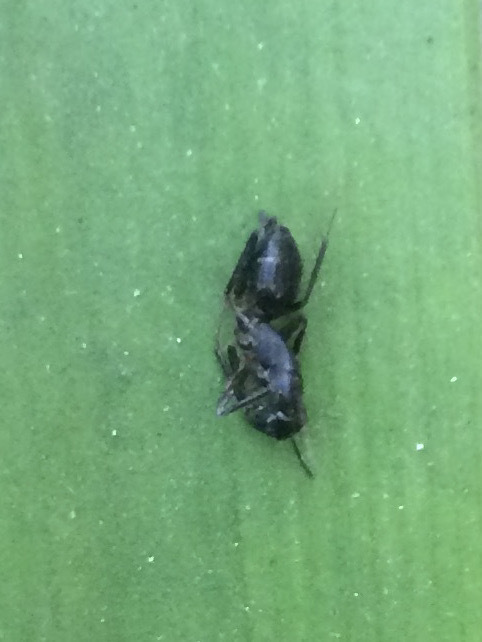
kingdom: Animalia
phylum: Arthropoda
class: Insecta
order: Hymenoptera
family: Formicidae
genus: Camponotus
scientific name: Camponotus compressus
